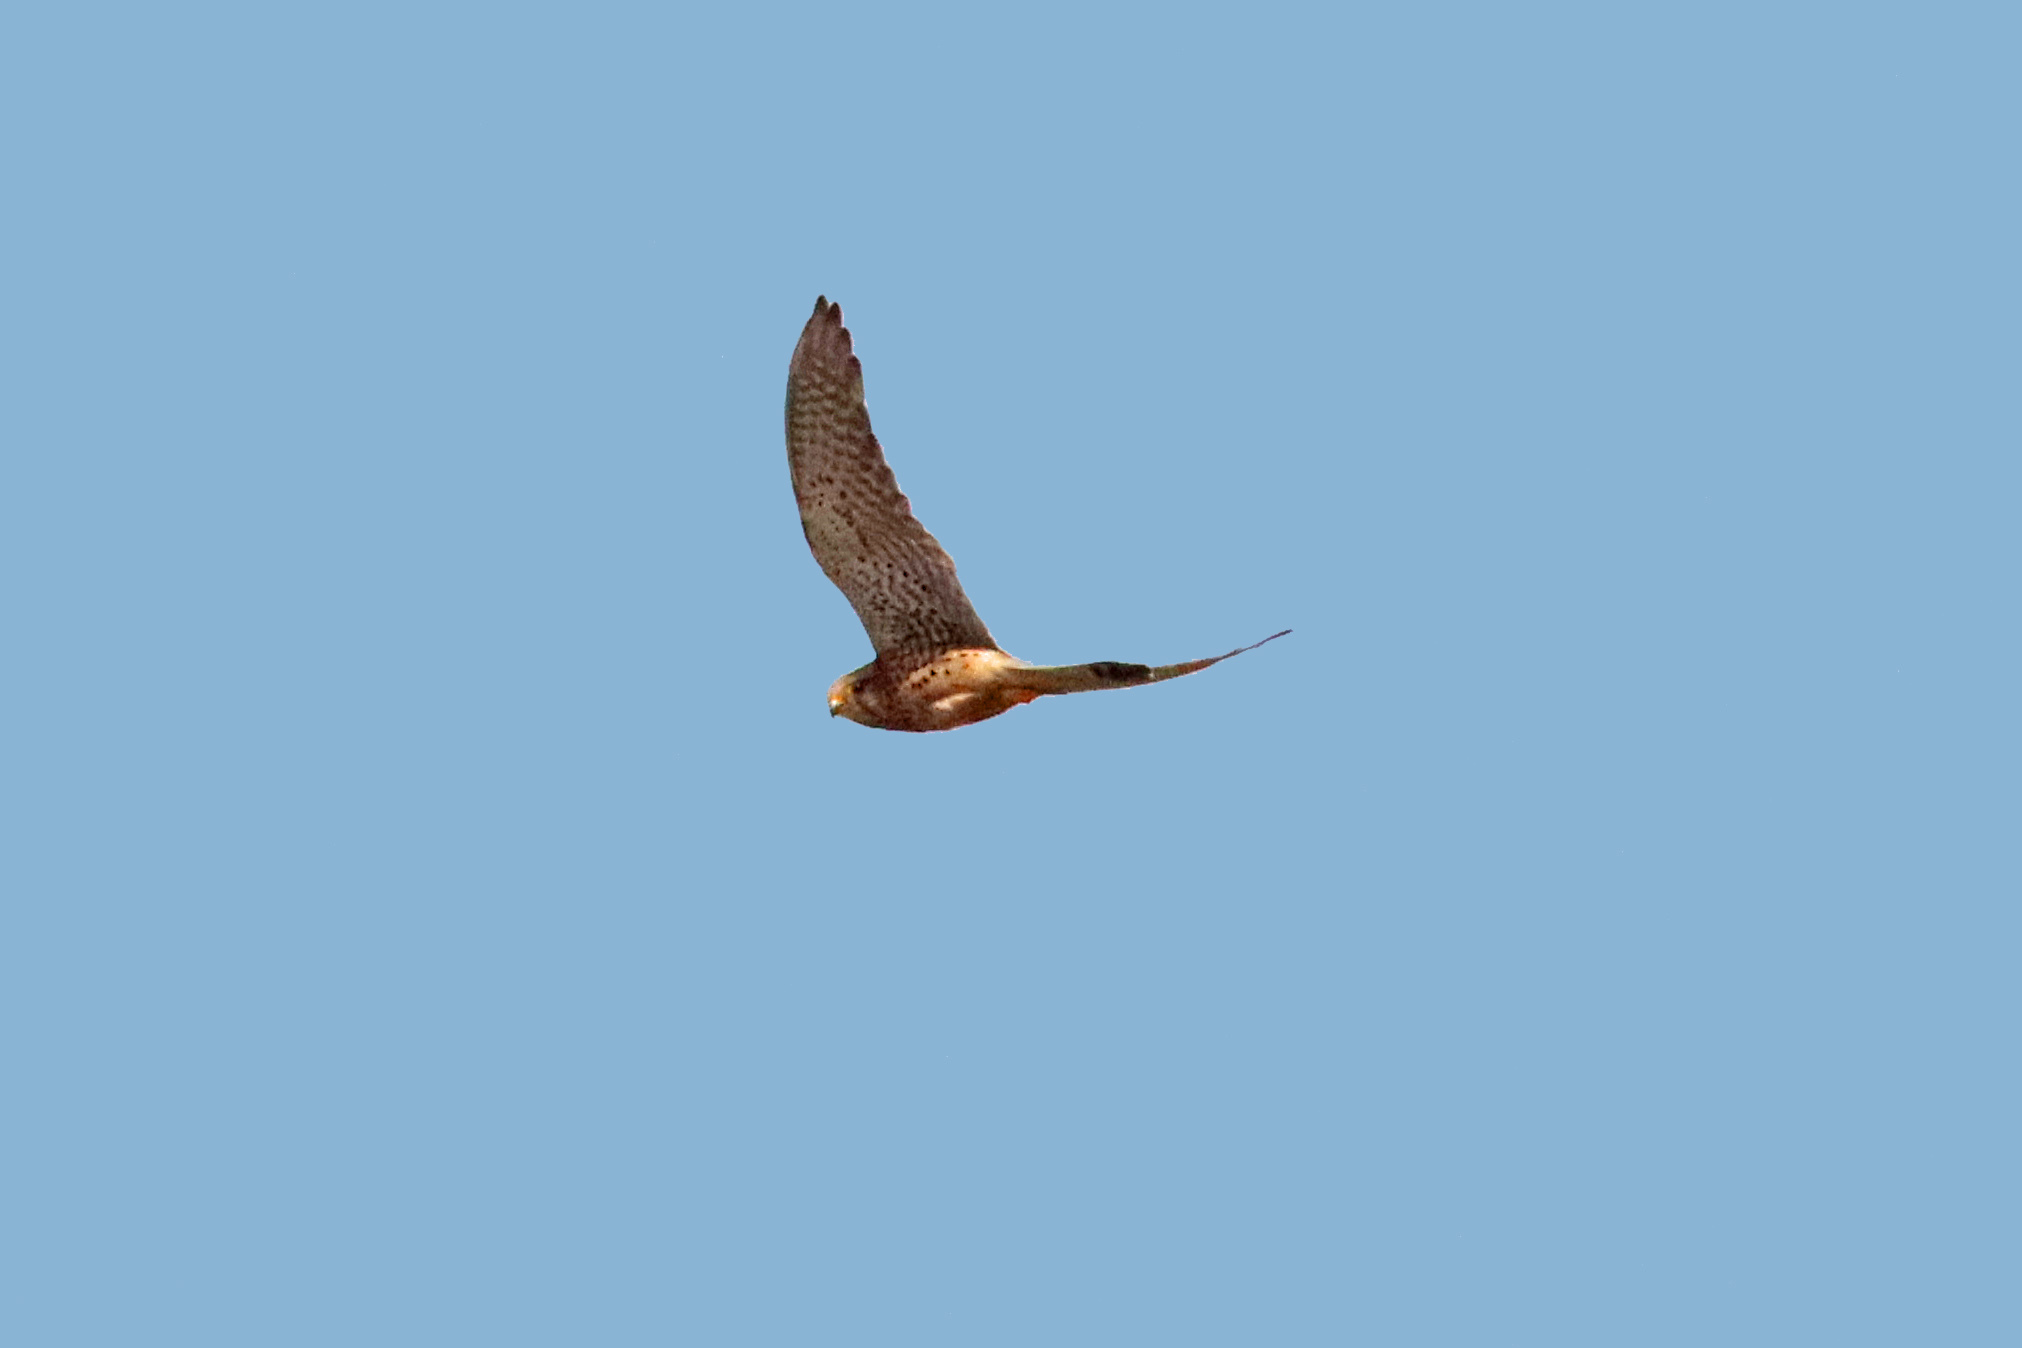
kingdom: Animalia
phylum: Chordata
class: Aves
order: Falconiformes
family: Falconidae
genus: Falco
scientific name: Falco tinnunculus
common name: Common kestrel
